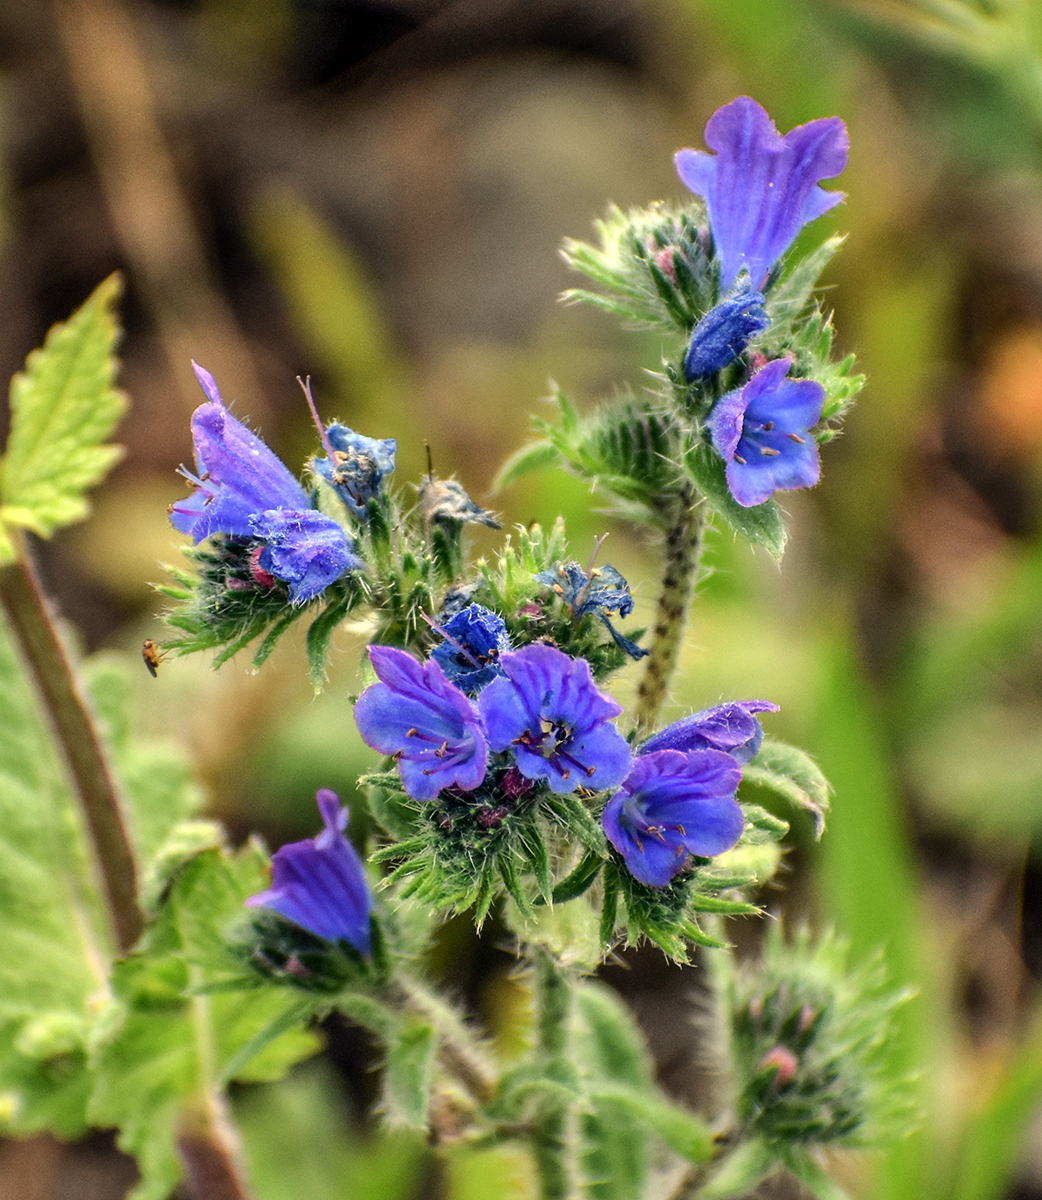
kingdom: Plantae
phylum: Tracheophyta
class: Magnoliopsida
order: Boraginales
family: Boraginaceae
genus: Echium
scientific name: Echium vulgare
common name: Common viper's bugloss
